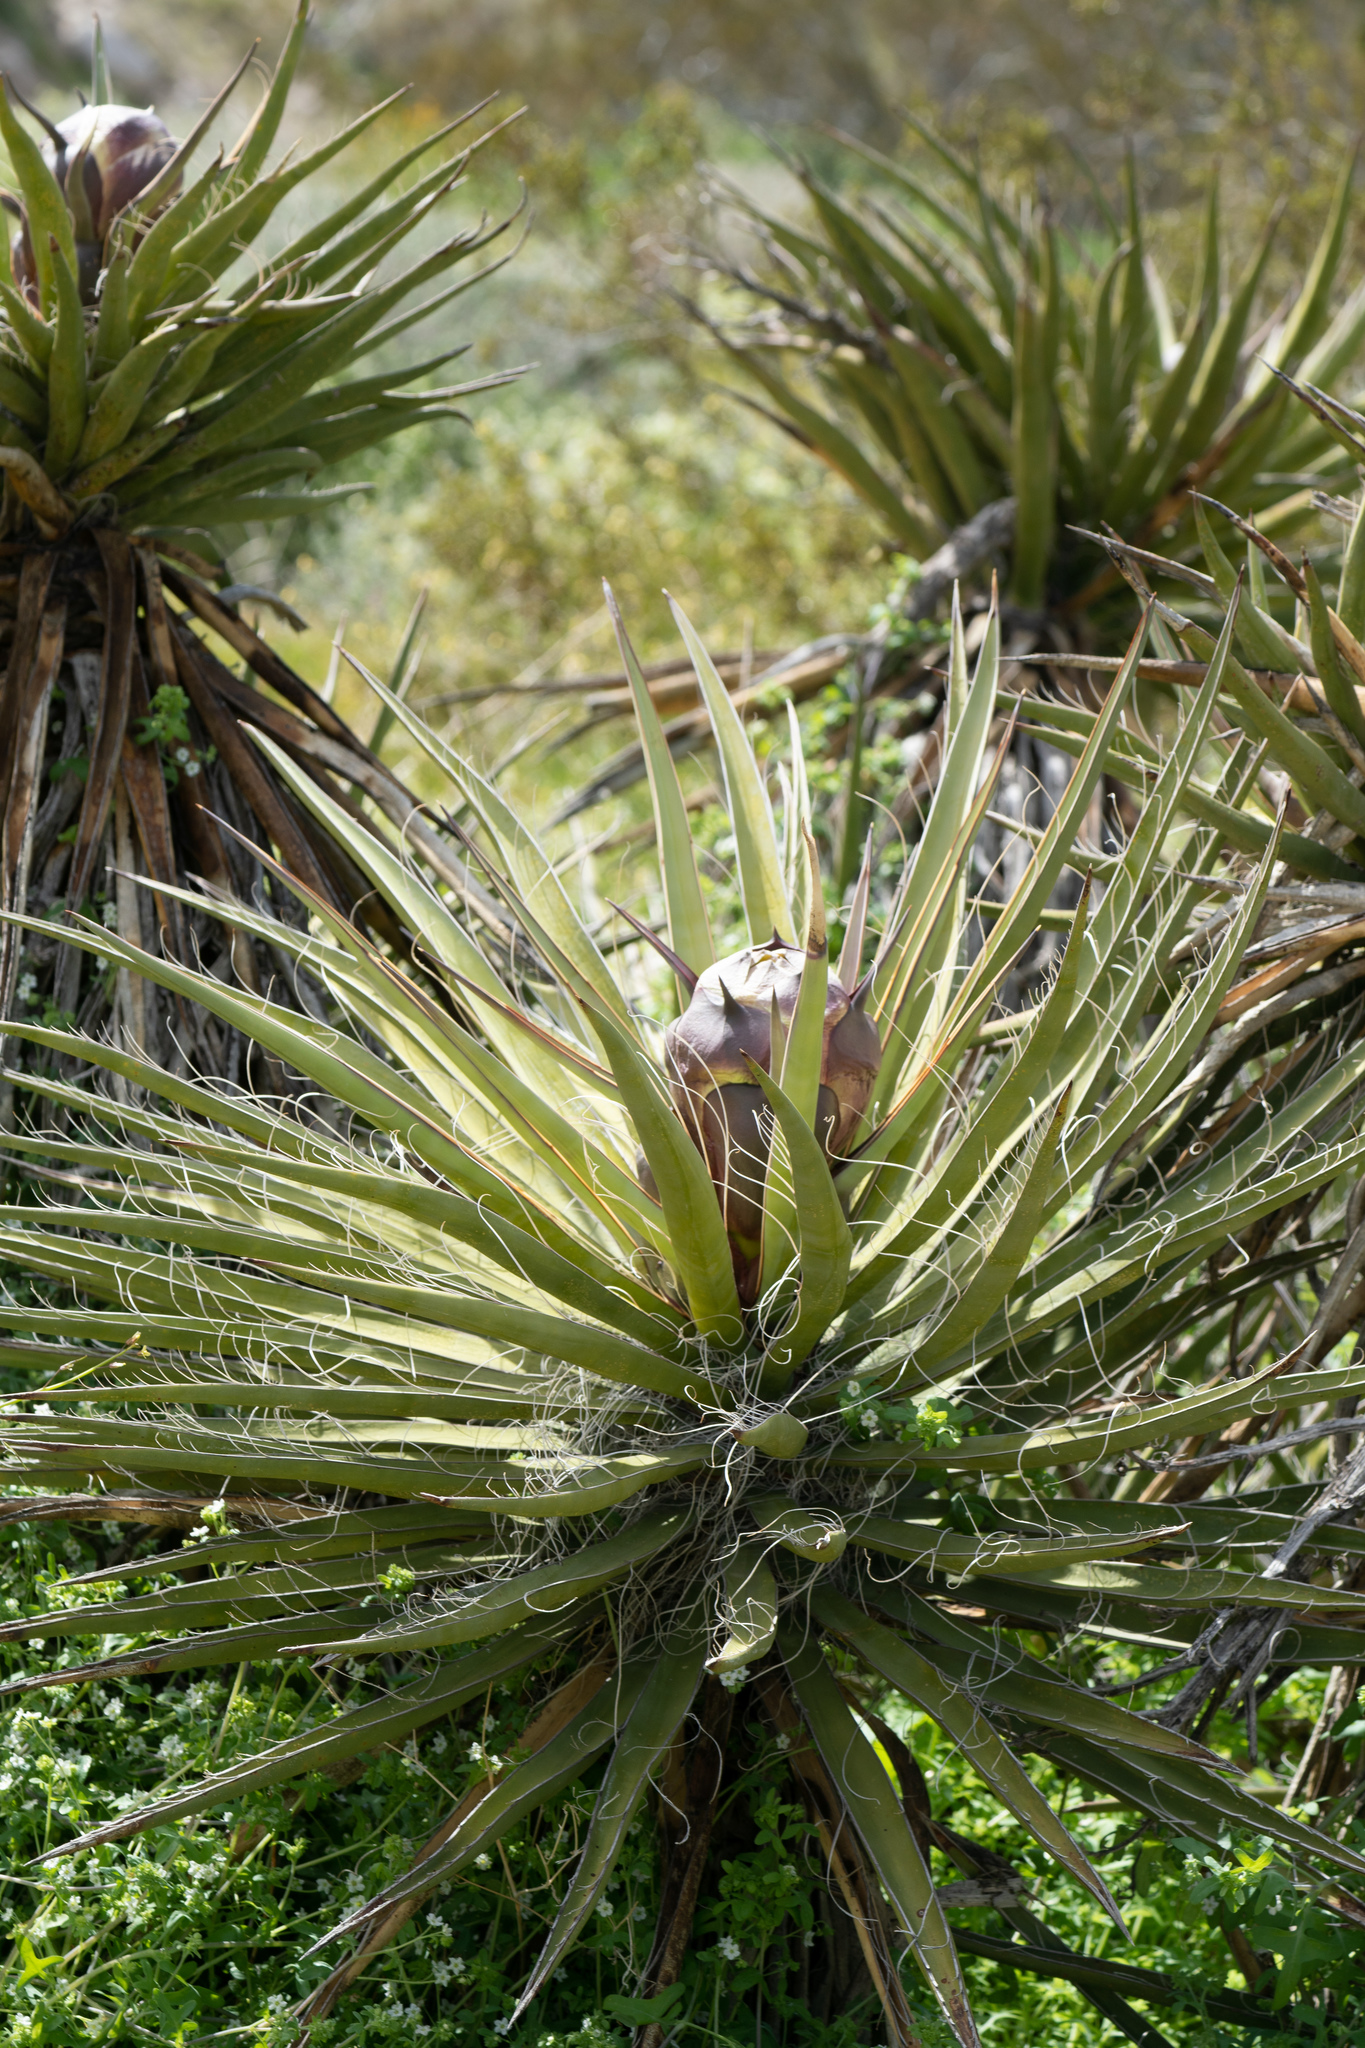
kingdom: Plantae
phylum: Tracheophyta
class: Liliopsida
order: Asparagales
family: Asparagaceae
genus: Yucca
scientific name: Yucca schidigera
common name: Mojave yucca
